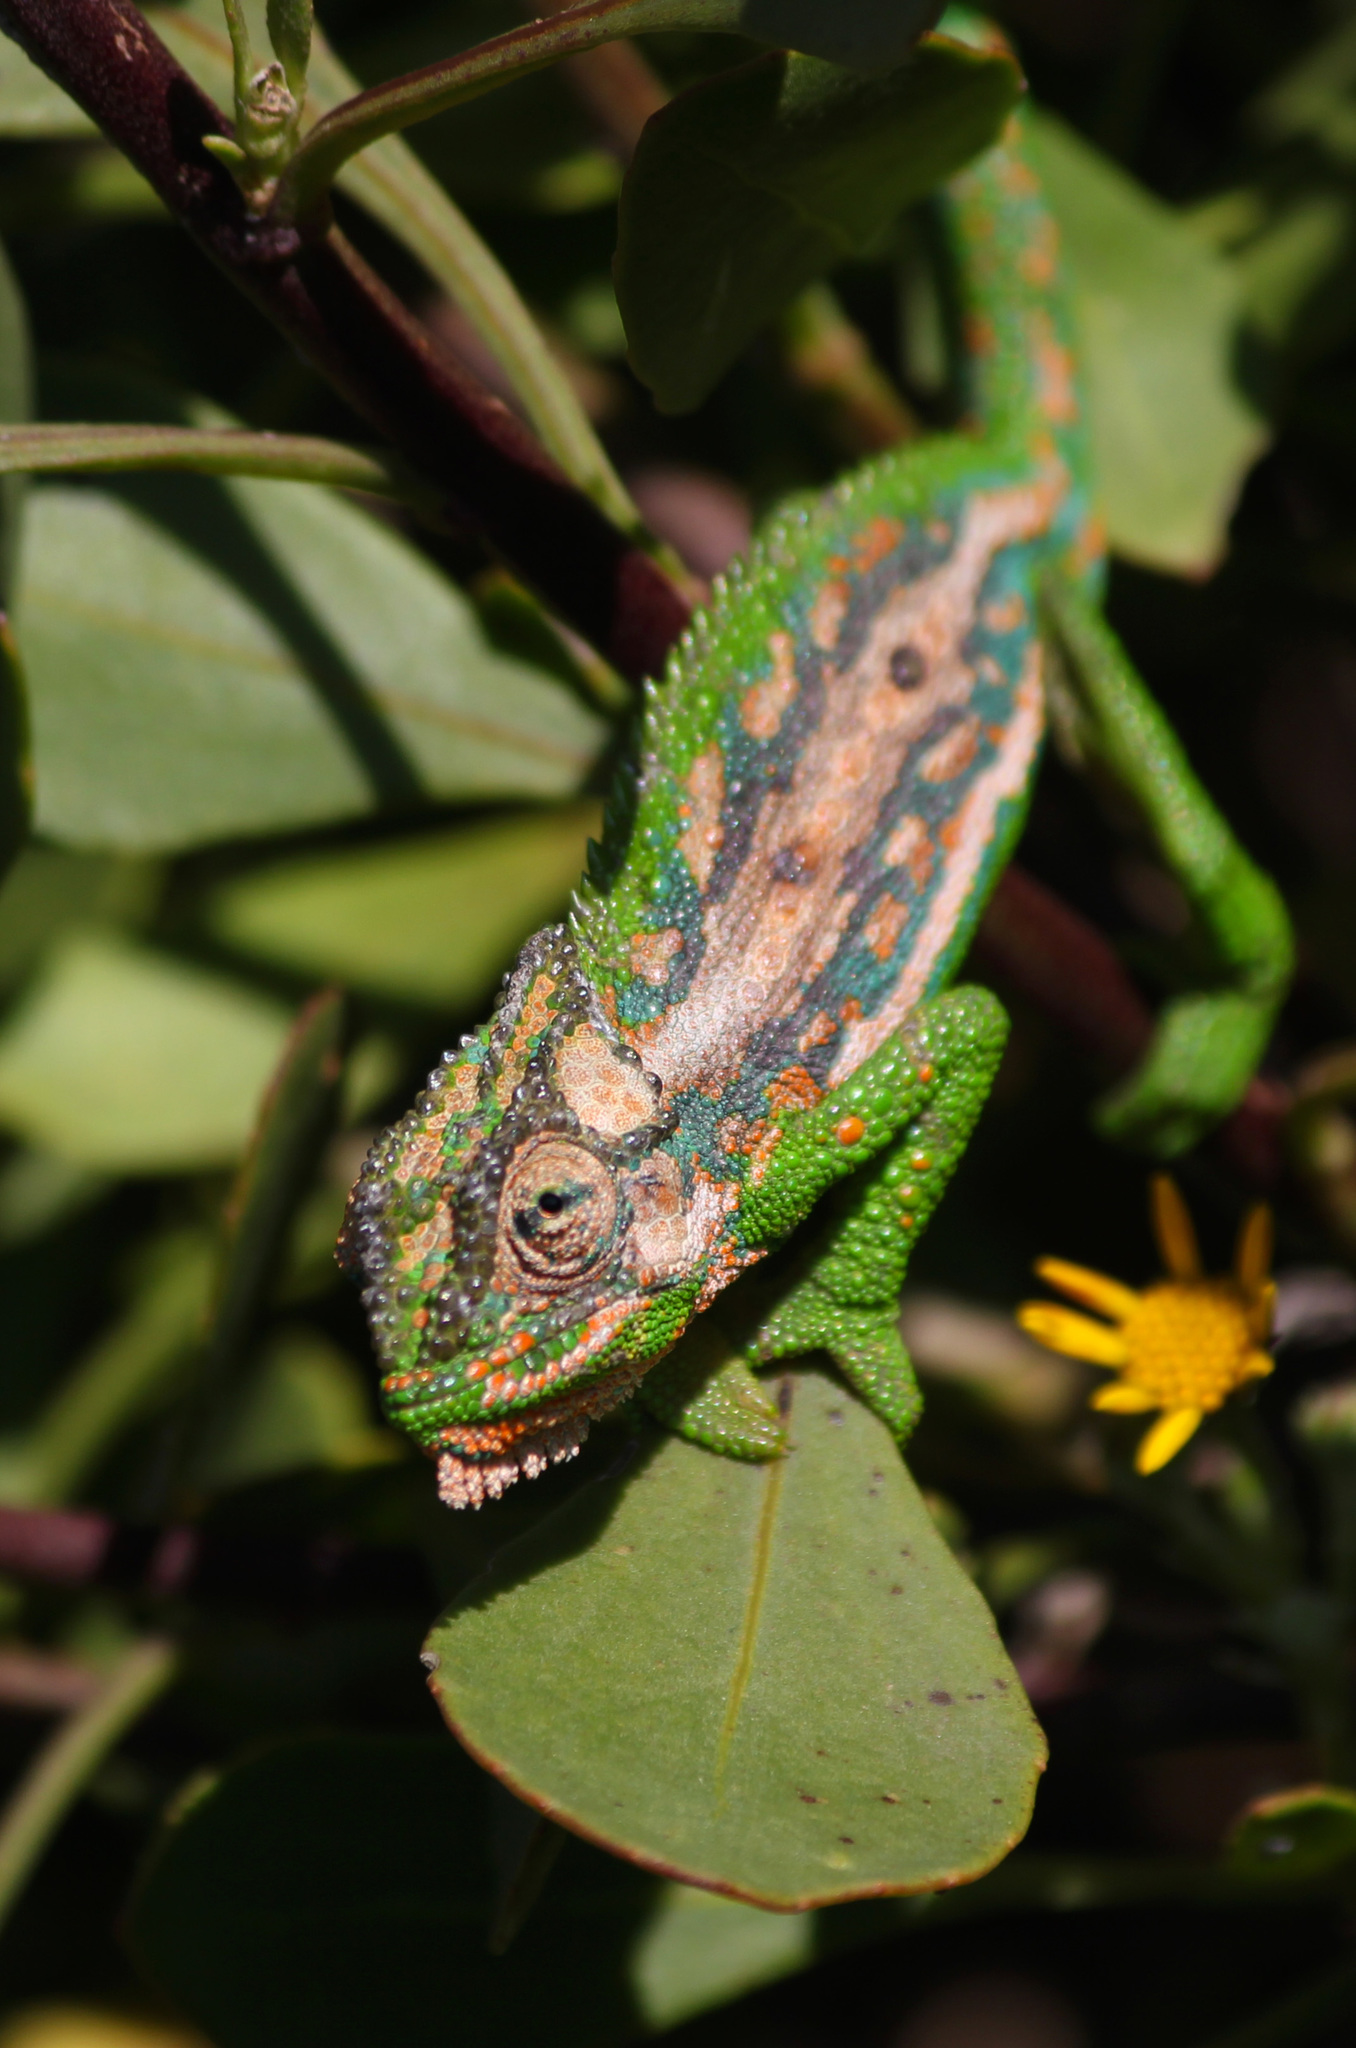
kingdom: Animalia
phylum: Chordata
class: Squamata
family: Chamaeleonidae
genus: Bradypodion
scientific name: Bradypodion pumilum
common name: Cape dwarf chameleon
